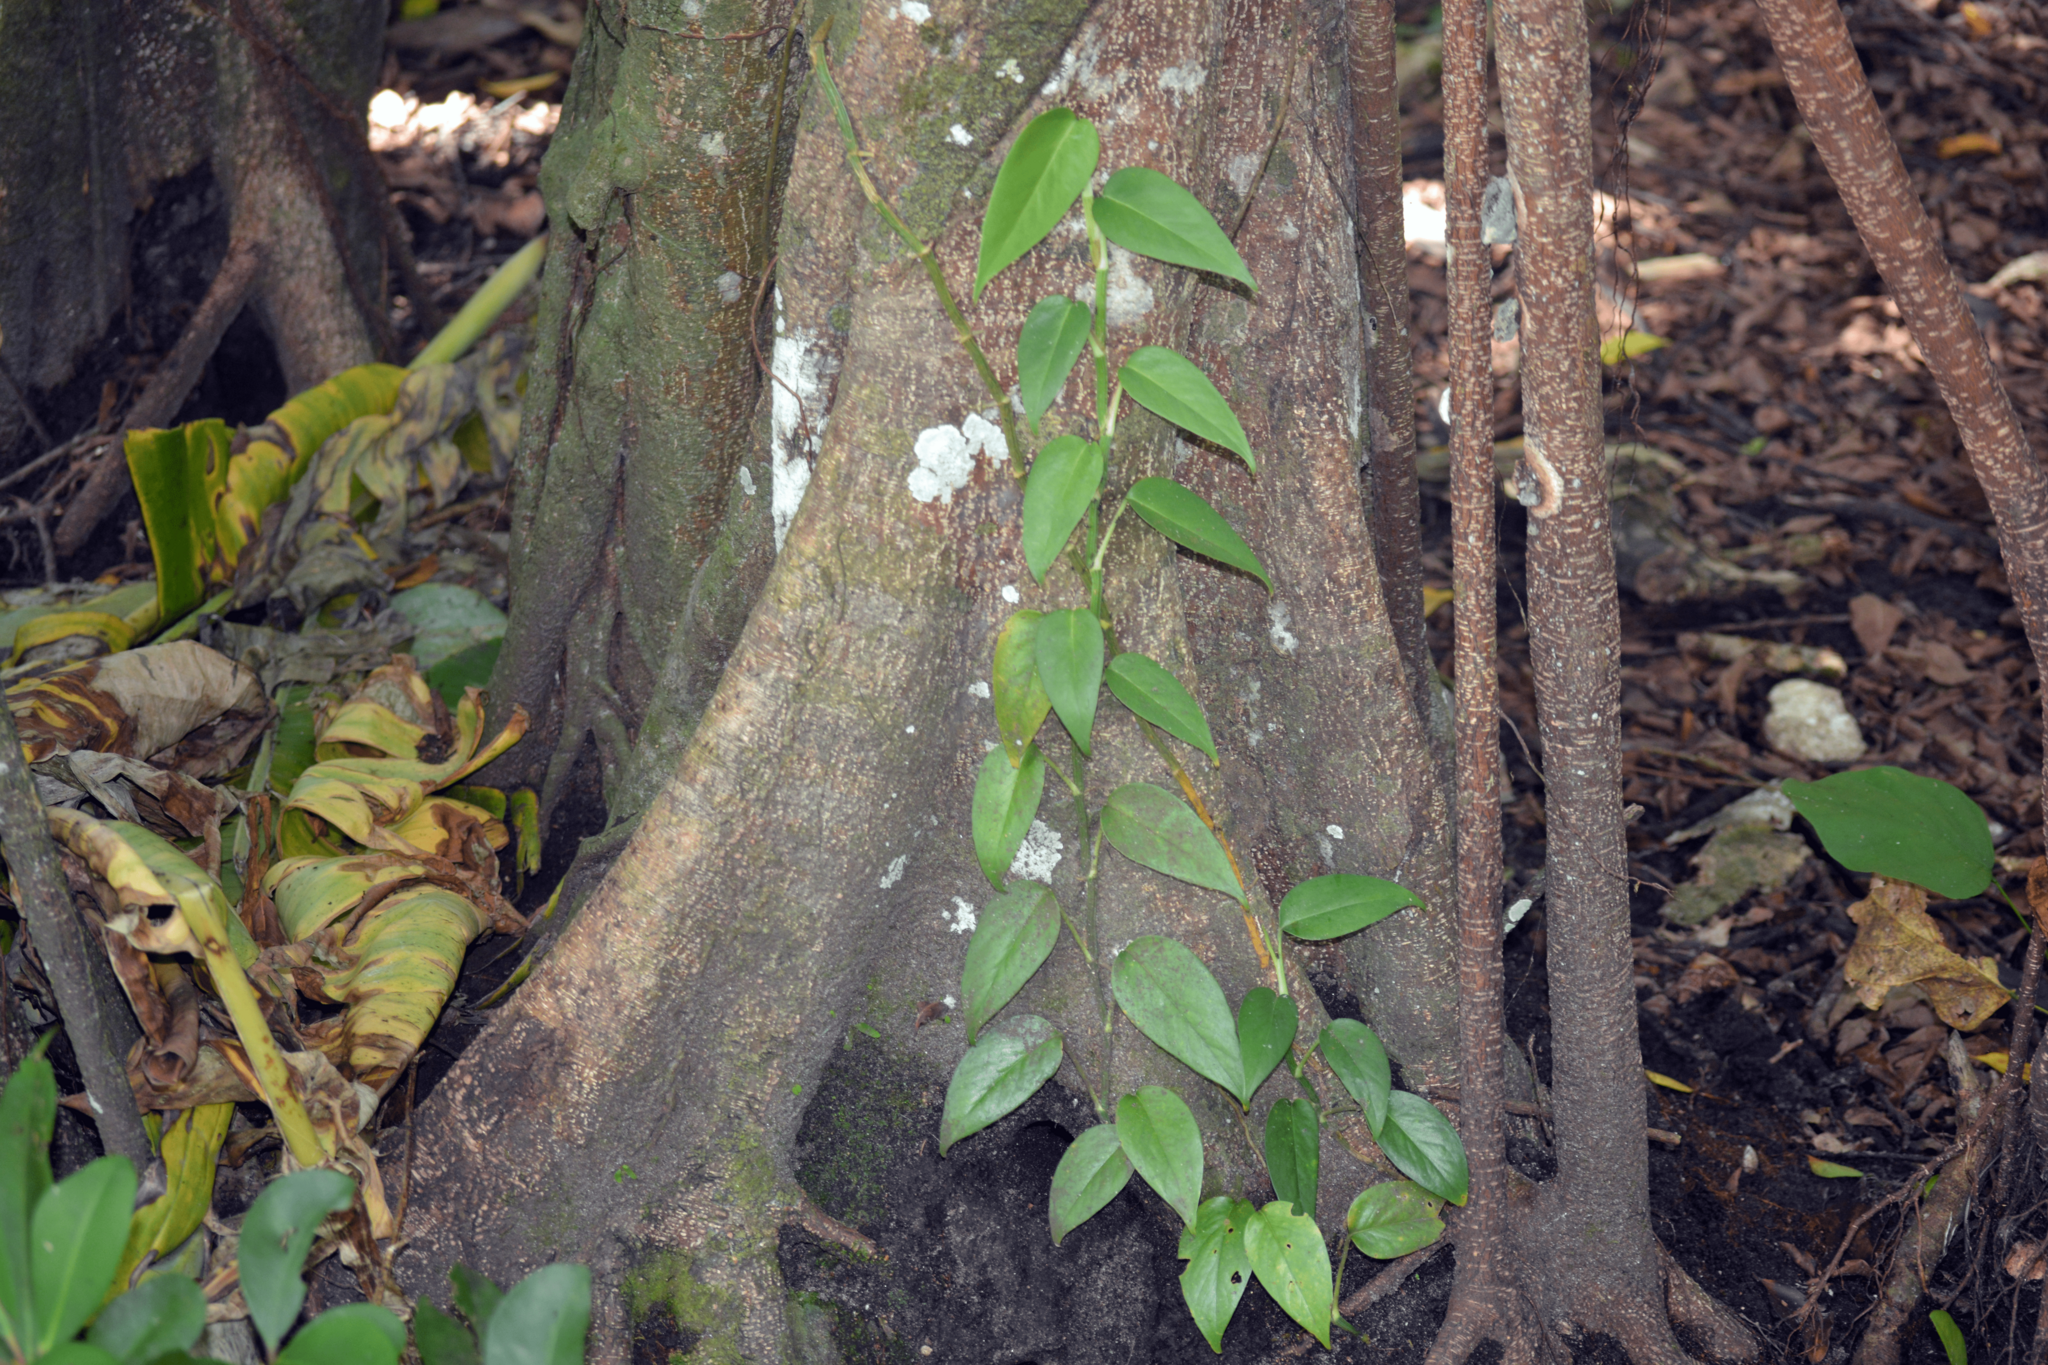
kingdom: Plantae
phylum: Tracheophyta
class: Liliopsida
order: Alismatales
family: Araceae
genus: Epipremnum
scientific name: Epipremnum pinnatum
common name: Centipede tongavine
